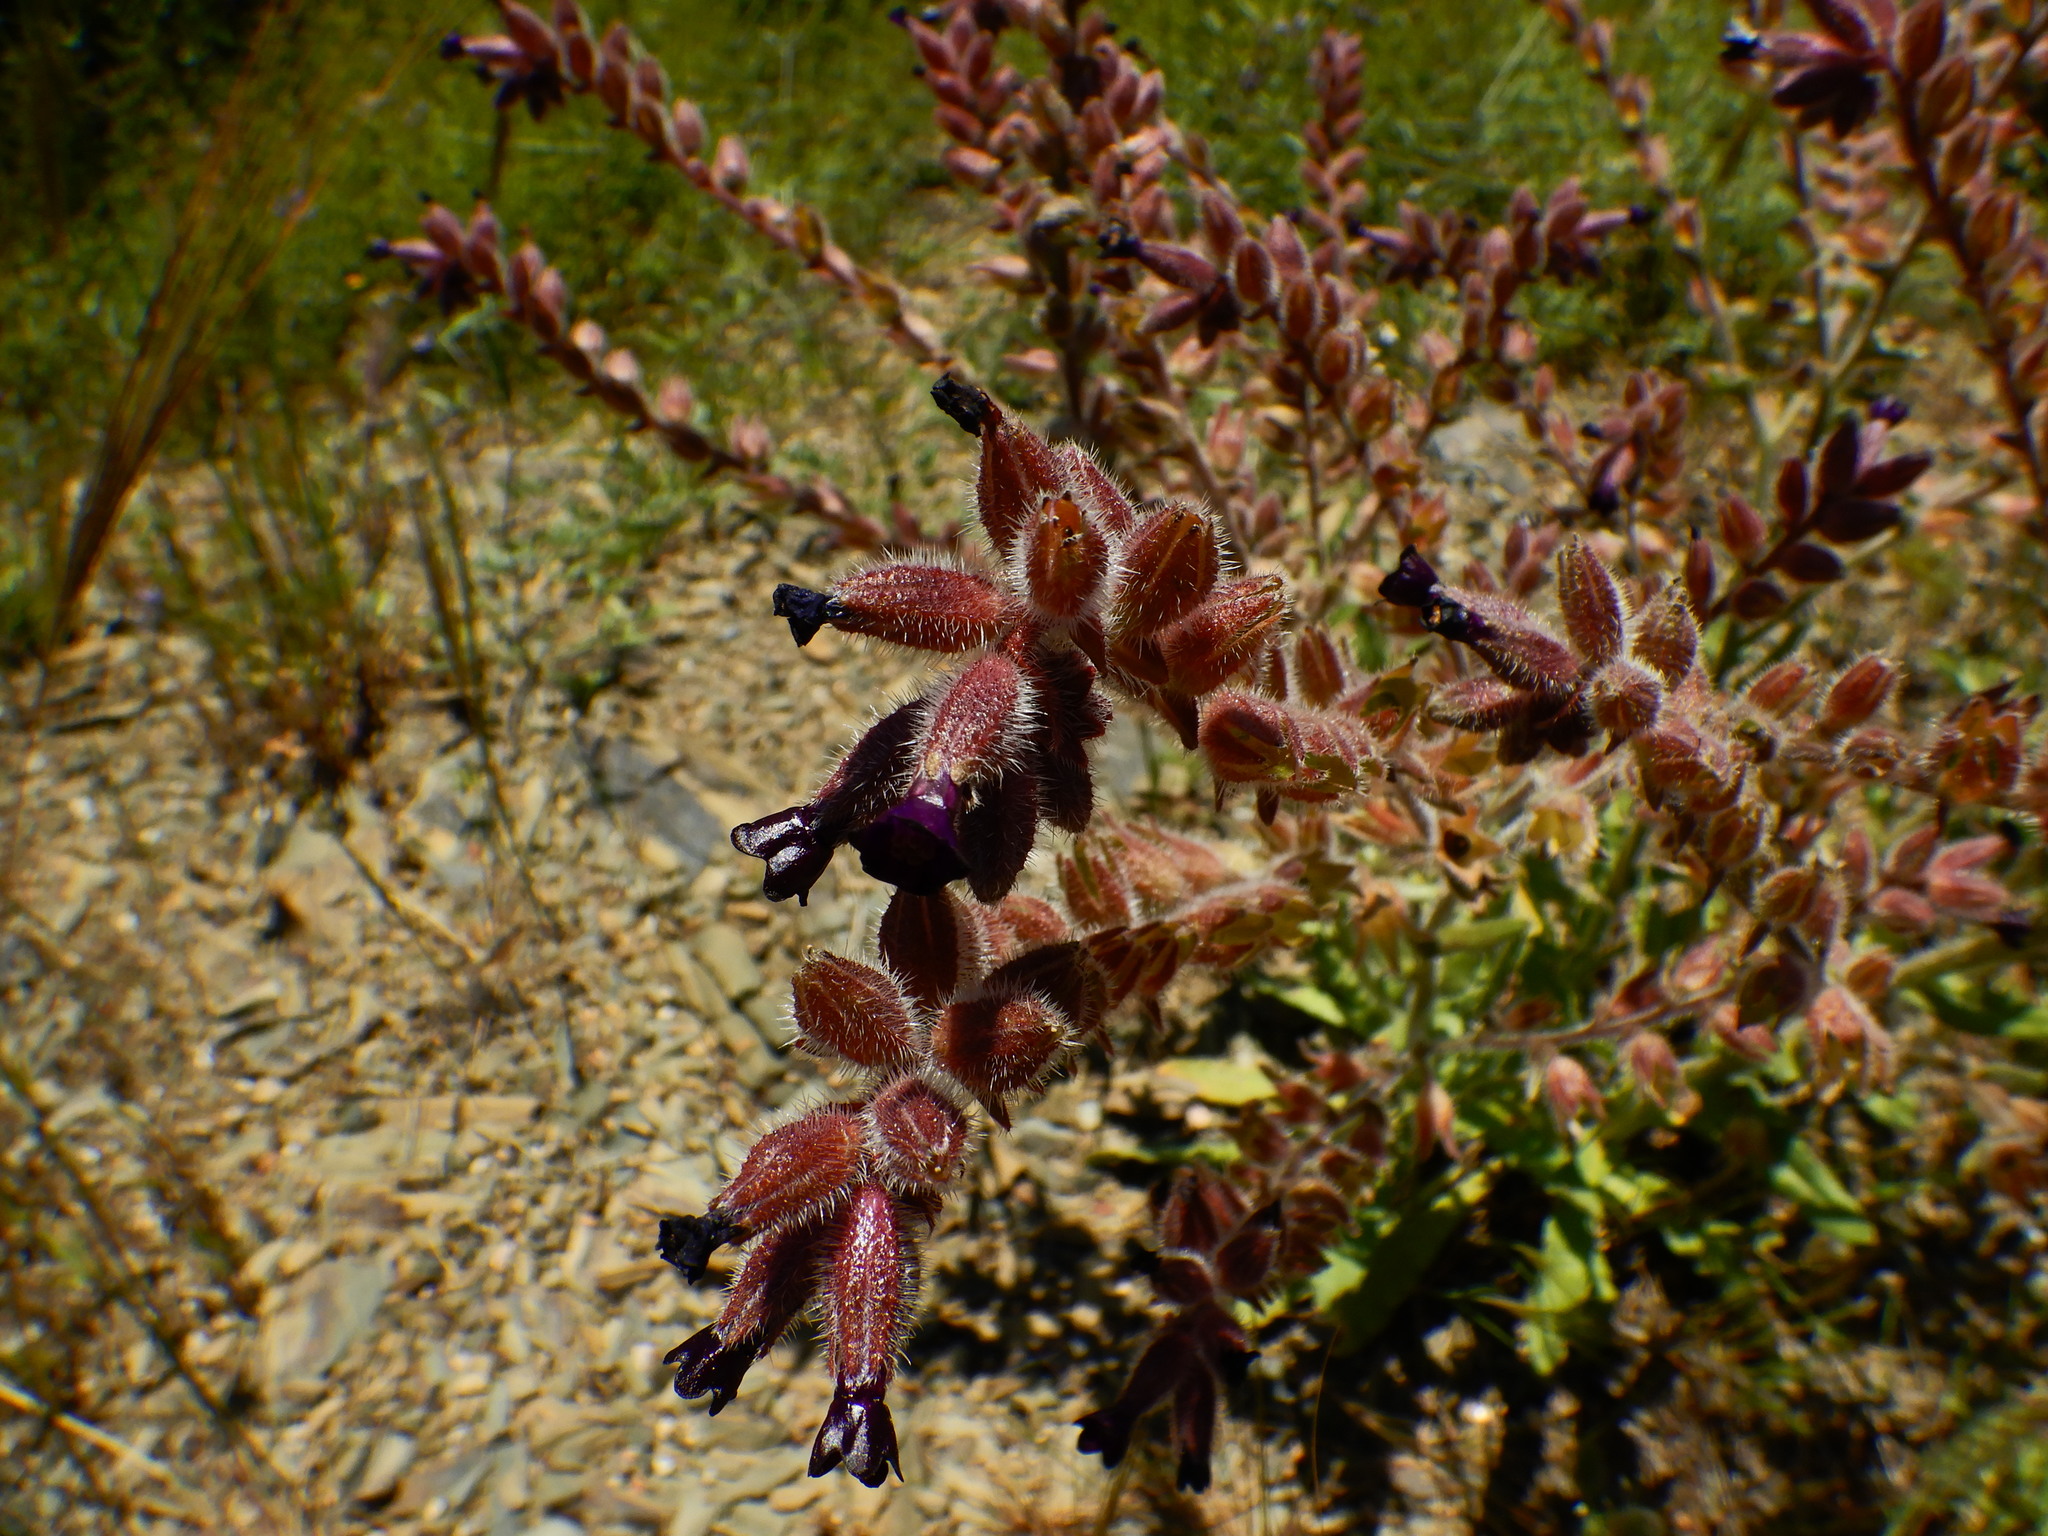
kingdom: Plantae
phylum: Tracheophyta
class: Magnoliopsida
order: Boraginales
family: Boraginaceae
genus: Anchusa
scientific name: Anchusa undulata
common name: Undulate alkanet
